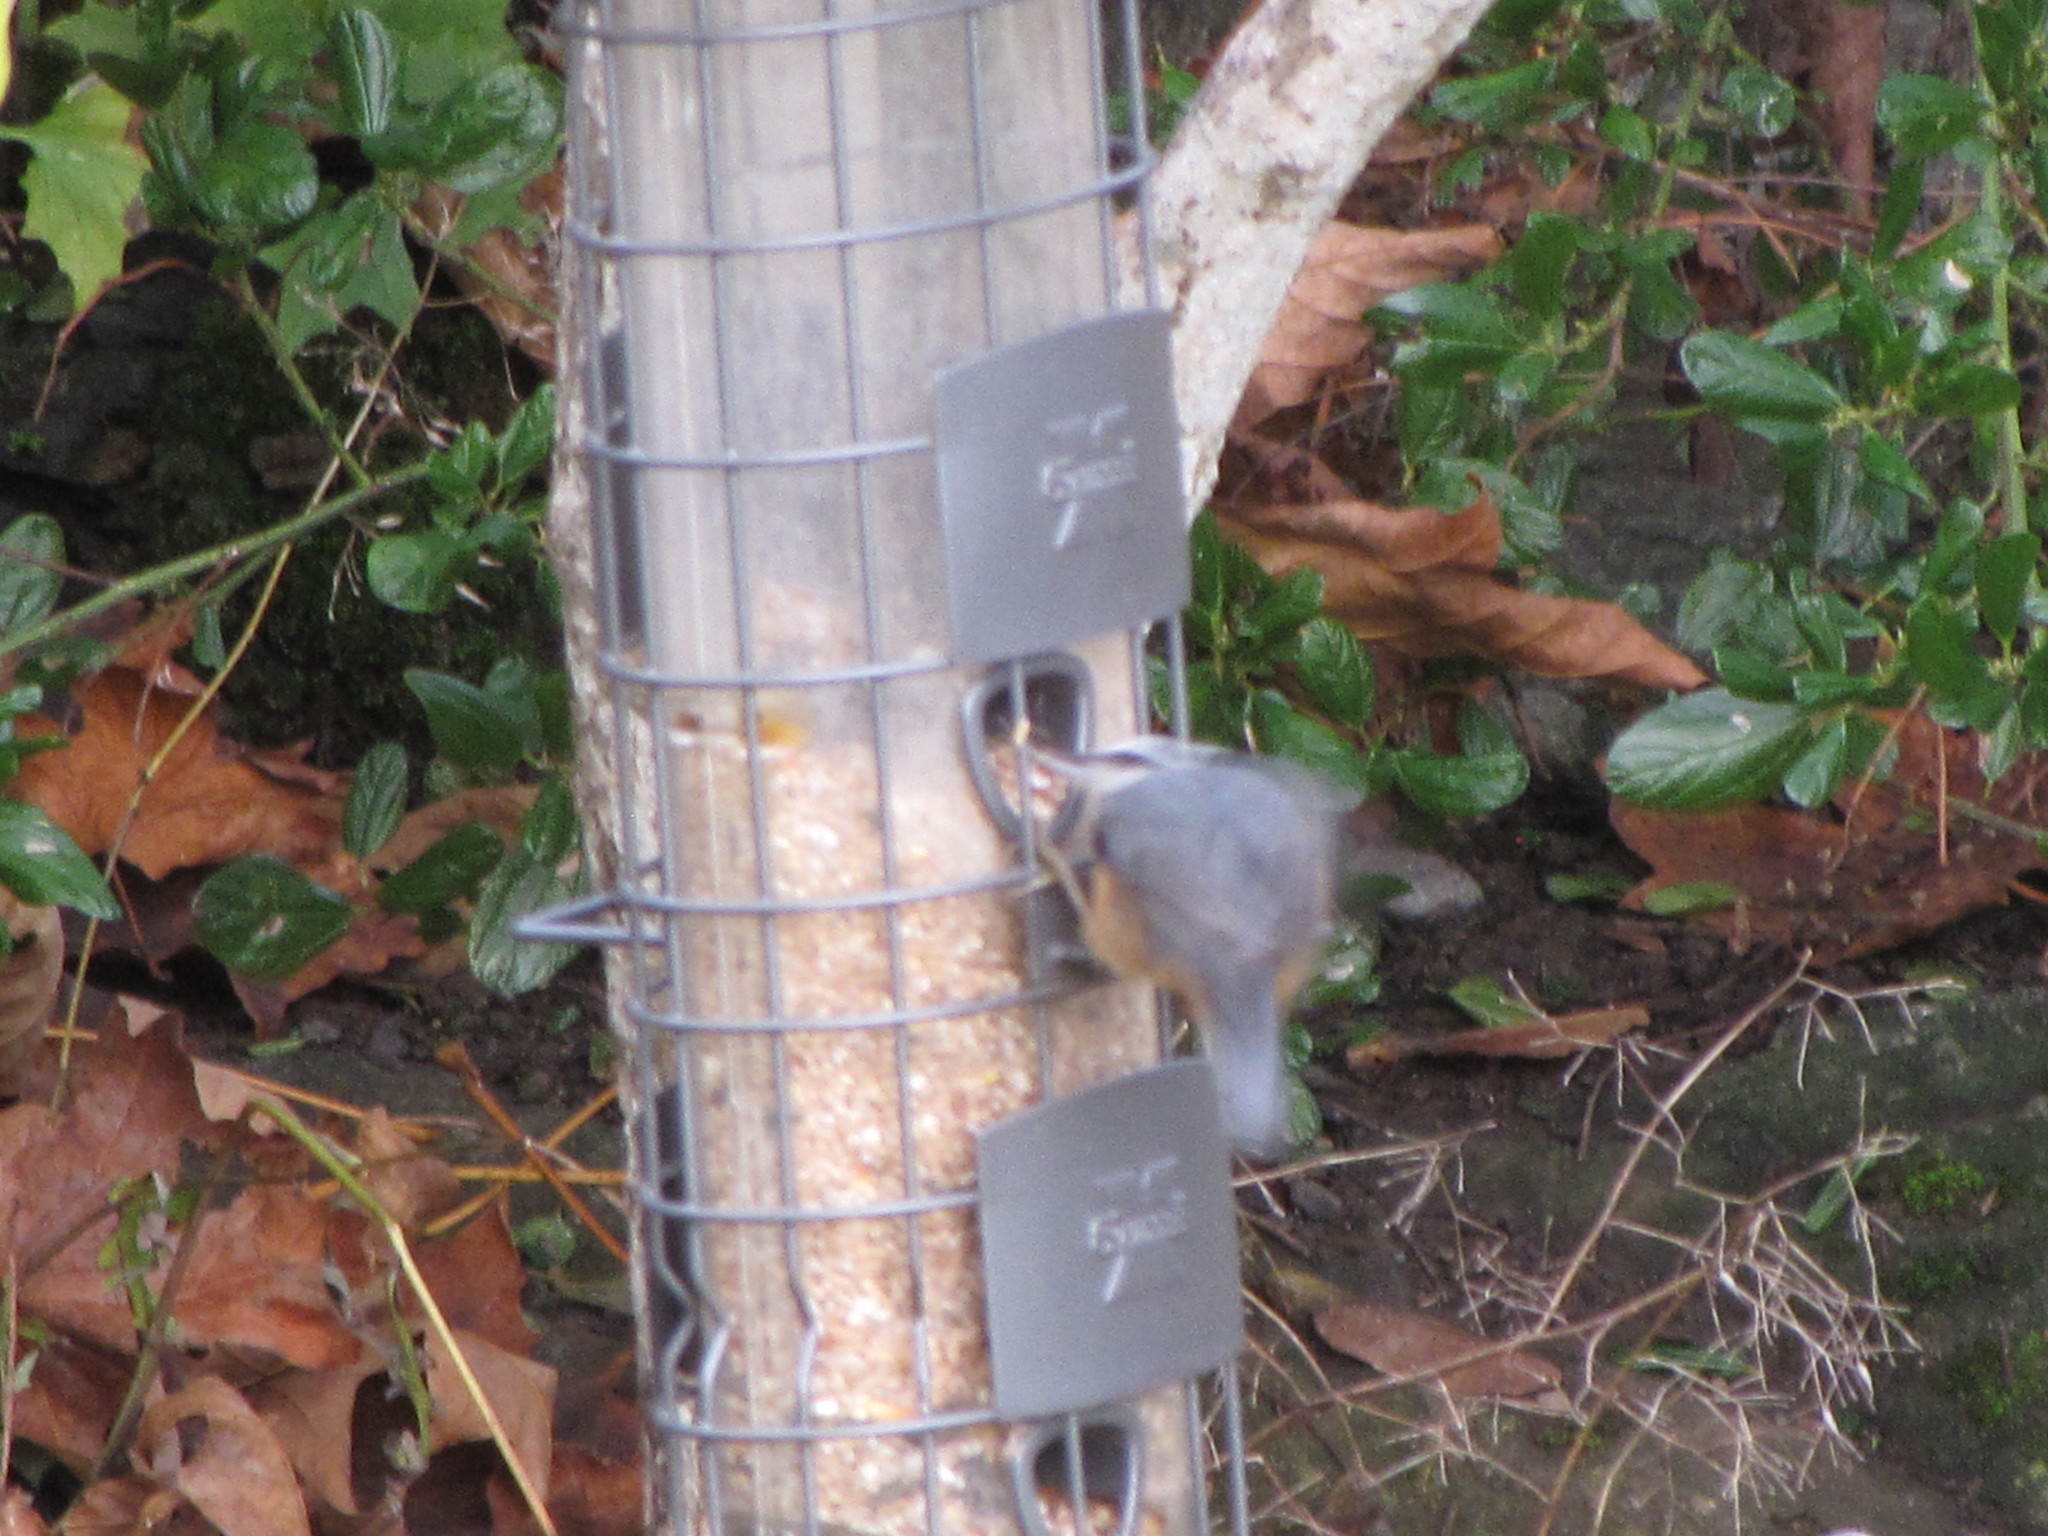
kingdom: Animalia
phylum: Chordata
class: Aves
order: Passeriformes
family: Sittidae
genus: Sitta
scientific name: Sitta canadensis
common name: Red-breasted nuthatch
